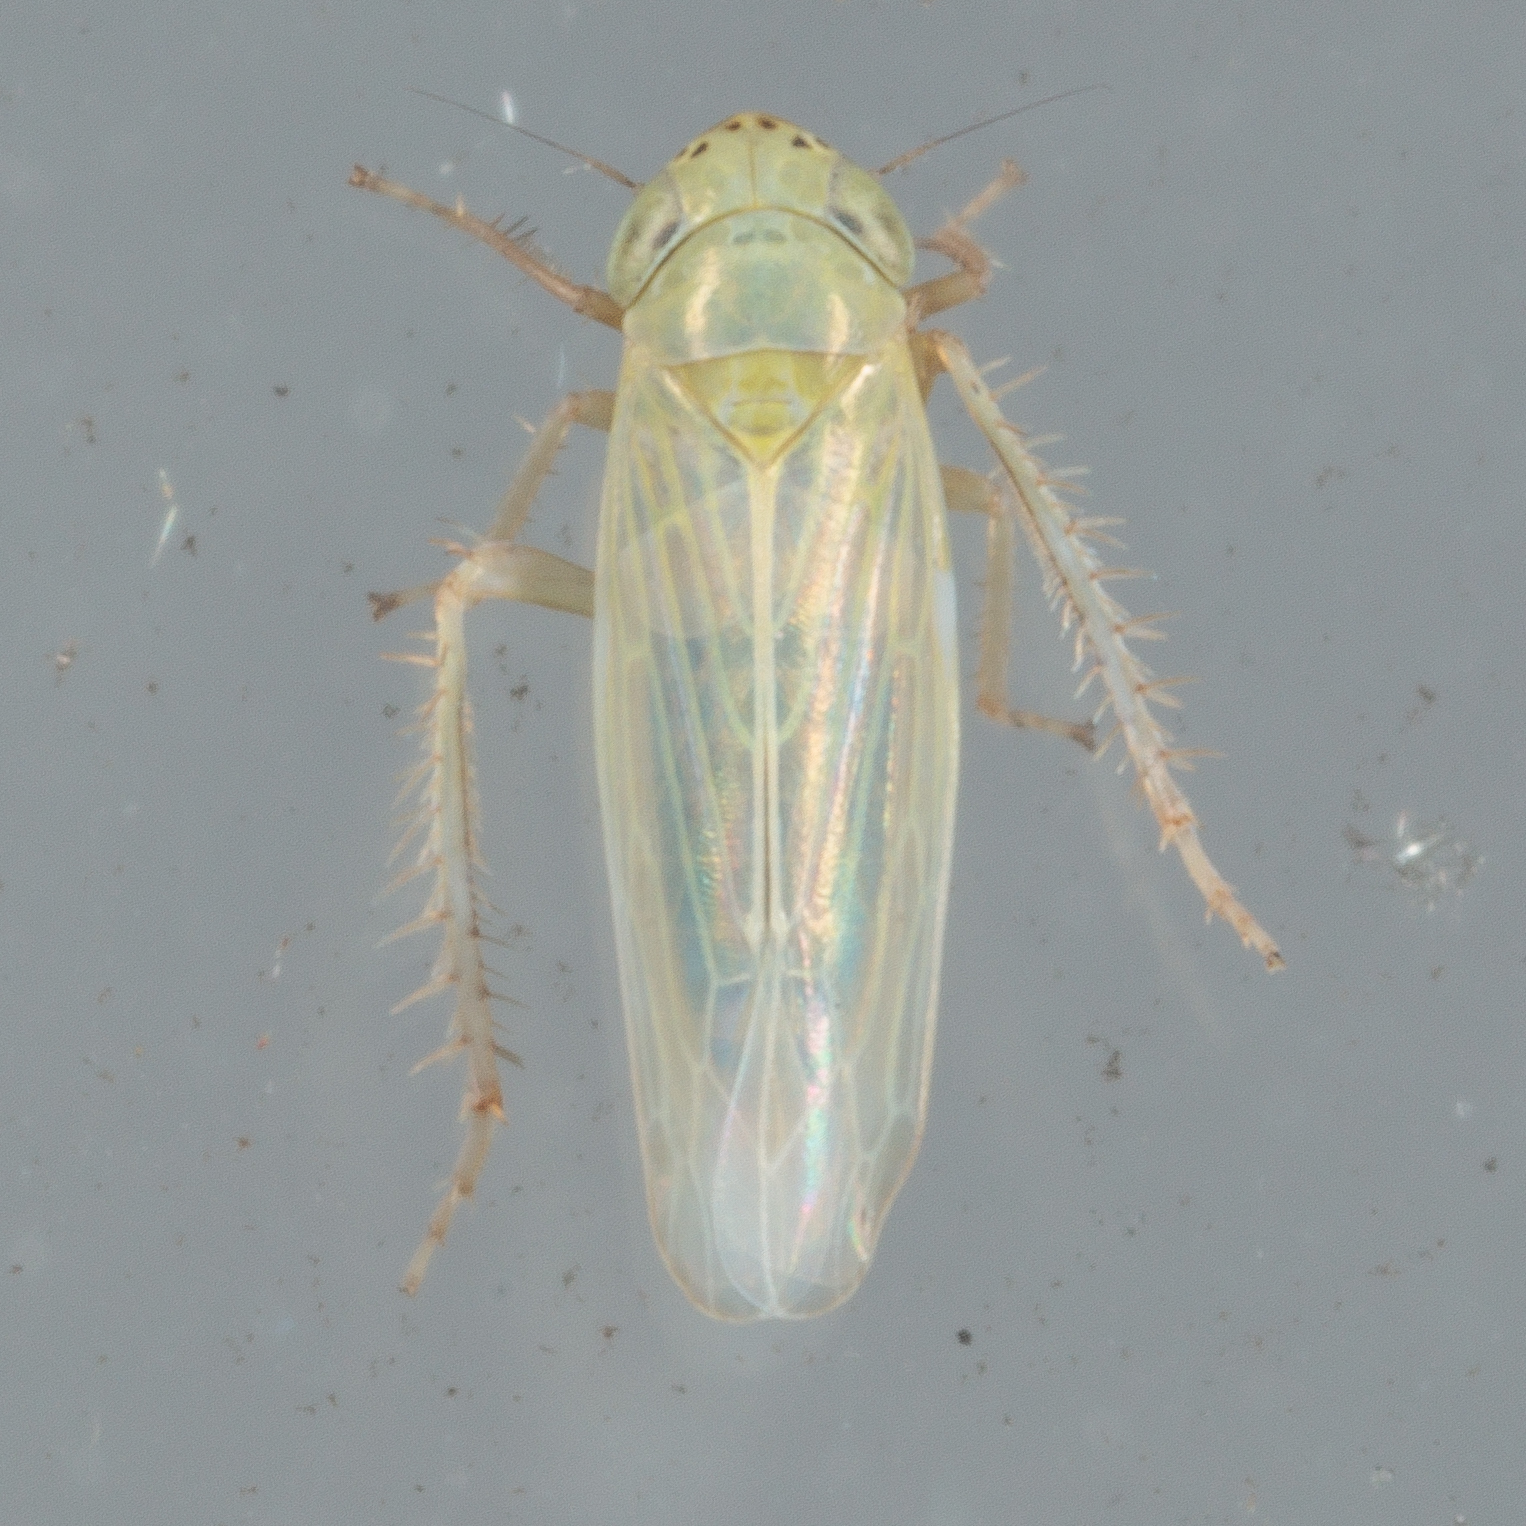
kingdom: Animalia
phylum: Arthropoda
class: Insecta
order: Hemiptera
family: Cicadellidae
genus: Graminella
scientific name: Graminella nigrifrons
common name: Blackfaced leafhopper
